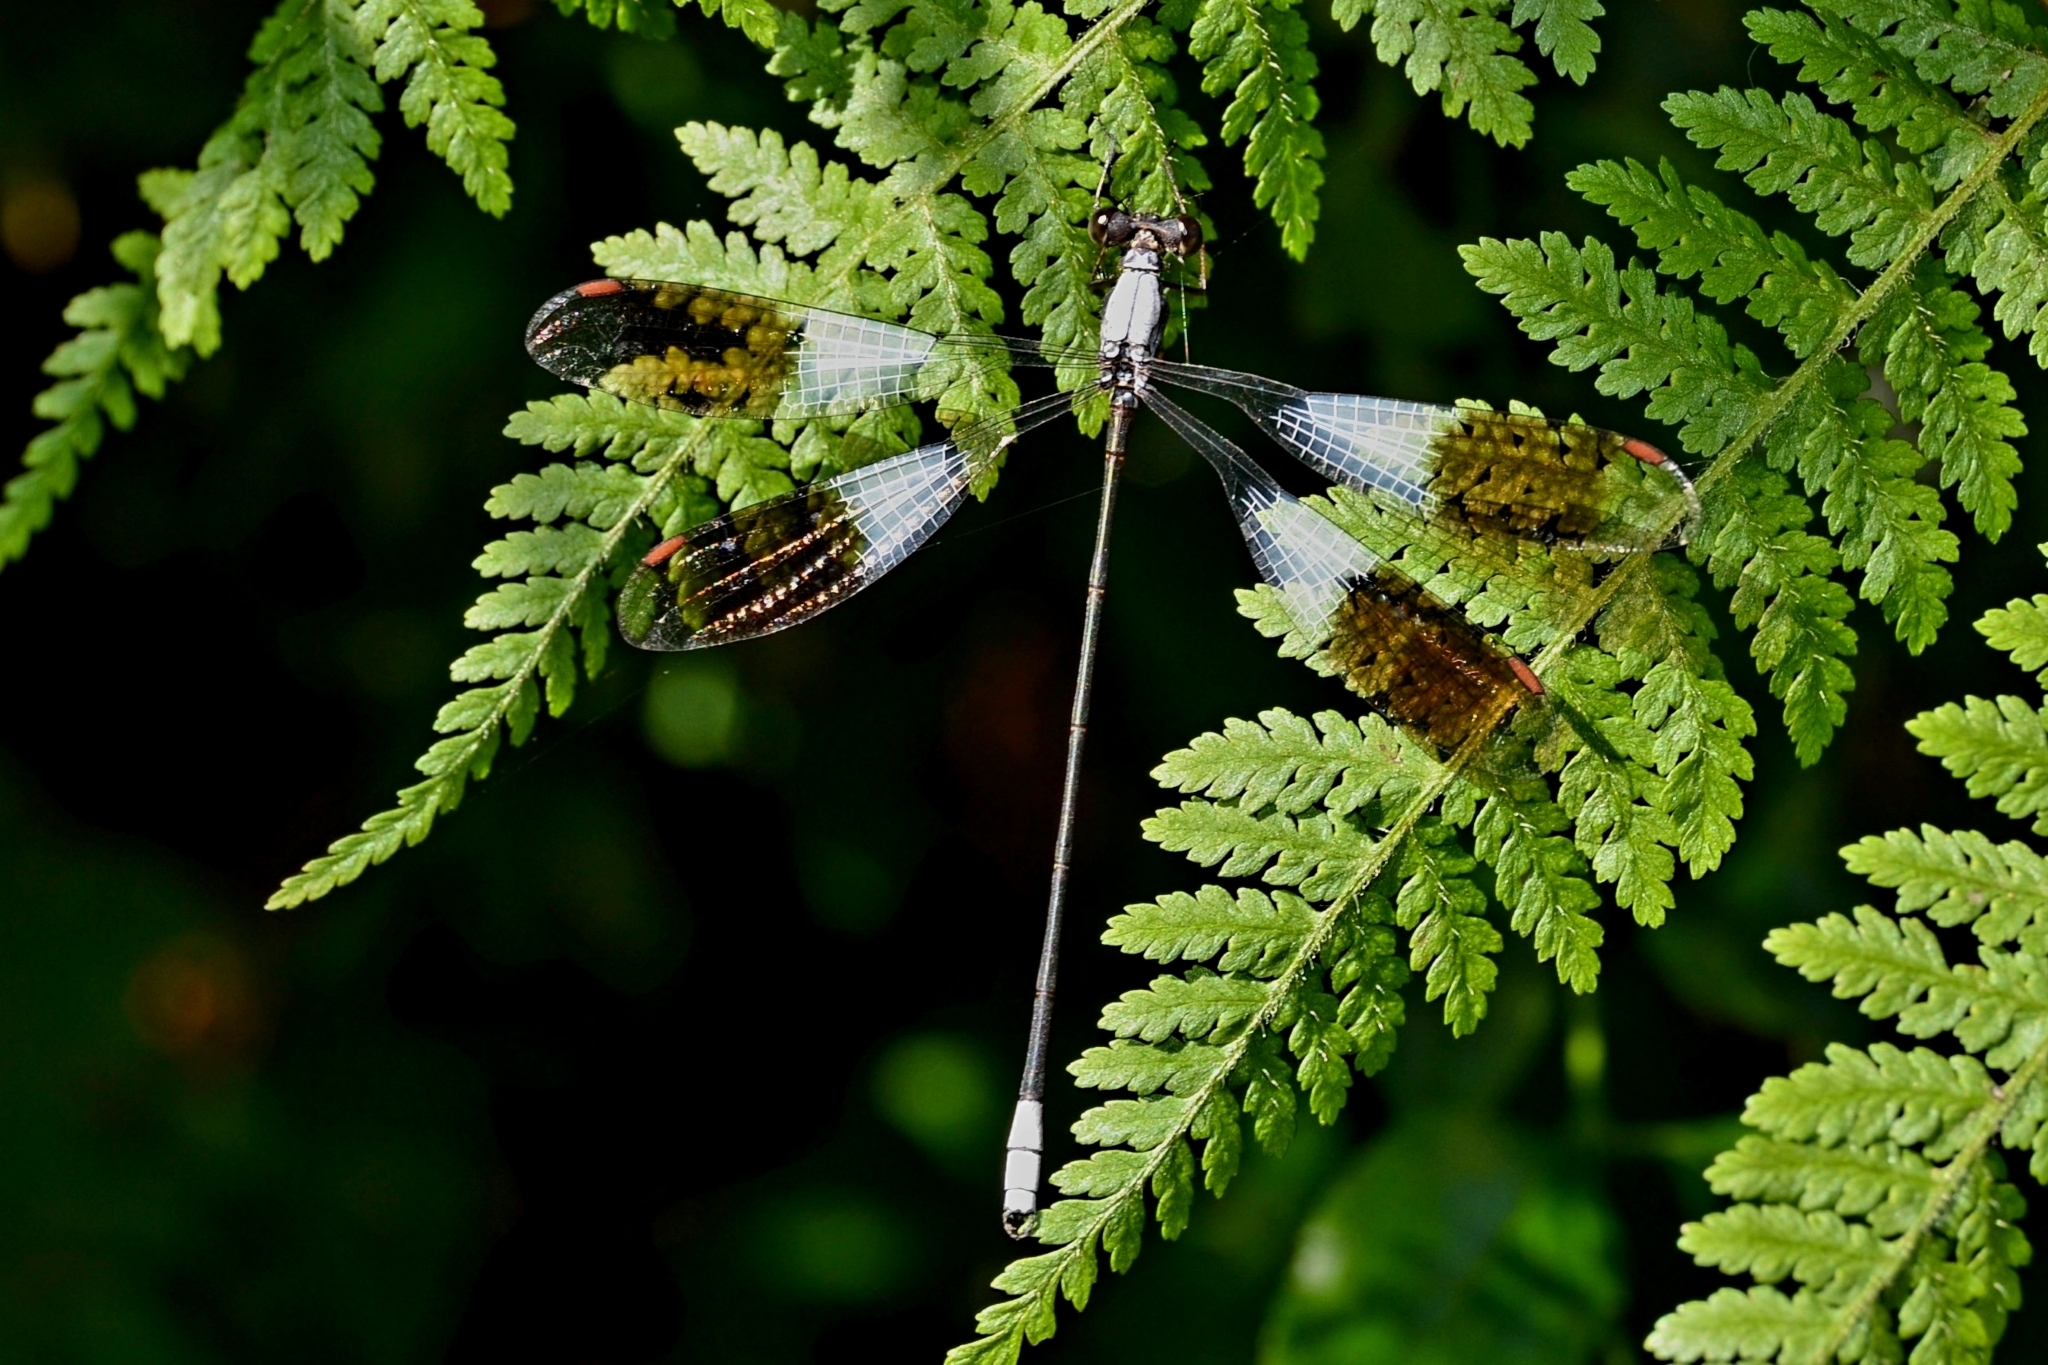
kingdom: Animalia
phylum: Arthropoda
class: Insecta
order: Odonata
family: Synlestidae
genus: Chlorolestes
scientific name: Chlorolestes umbratus
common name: White malachite
